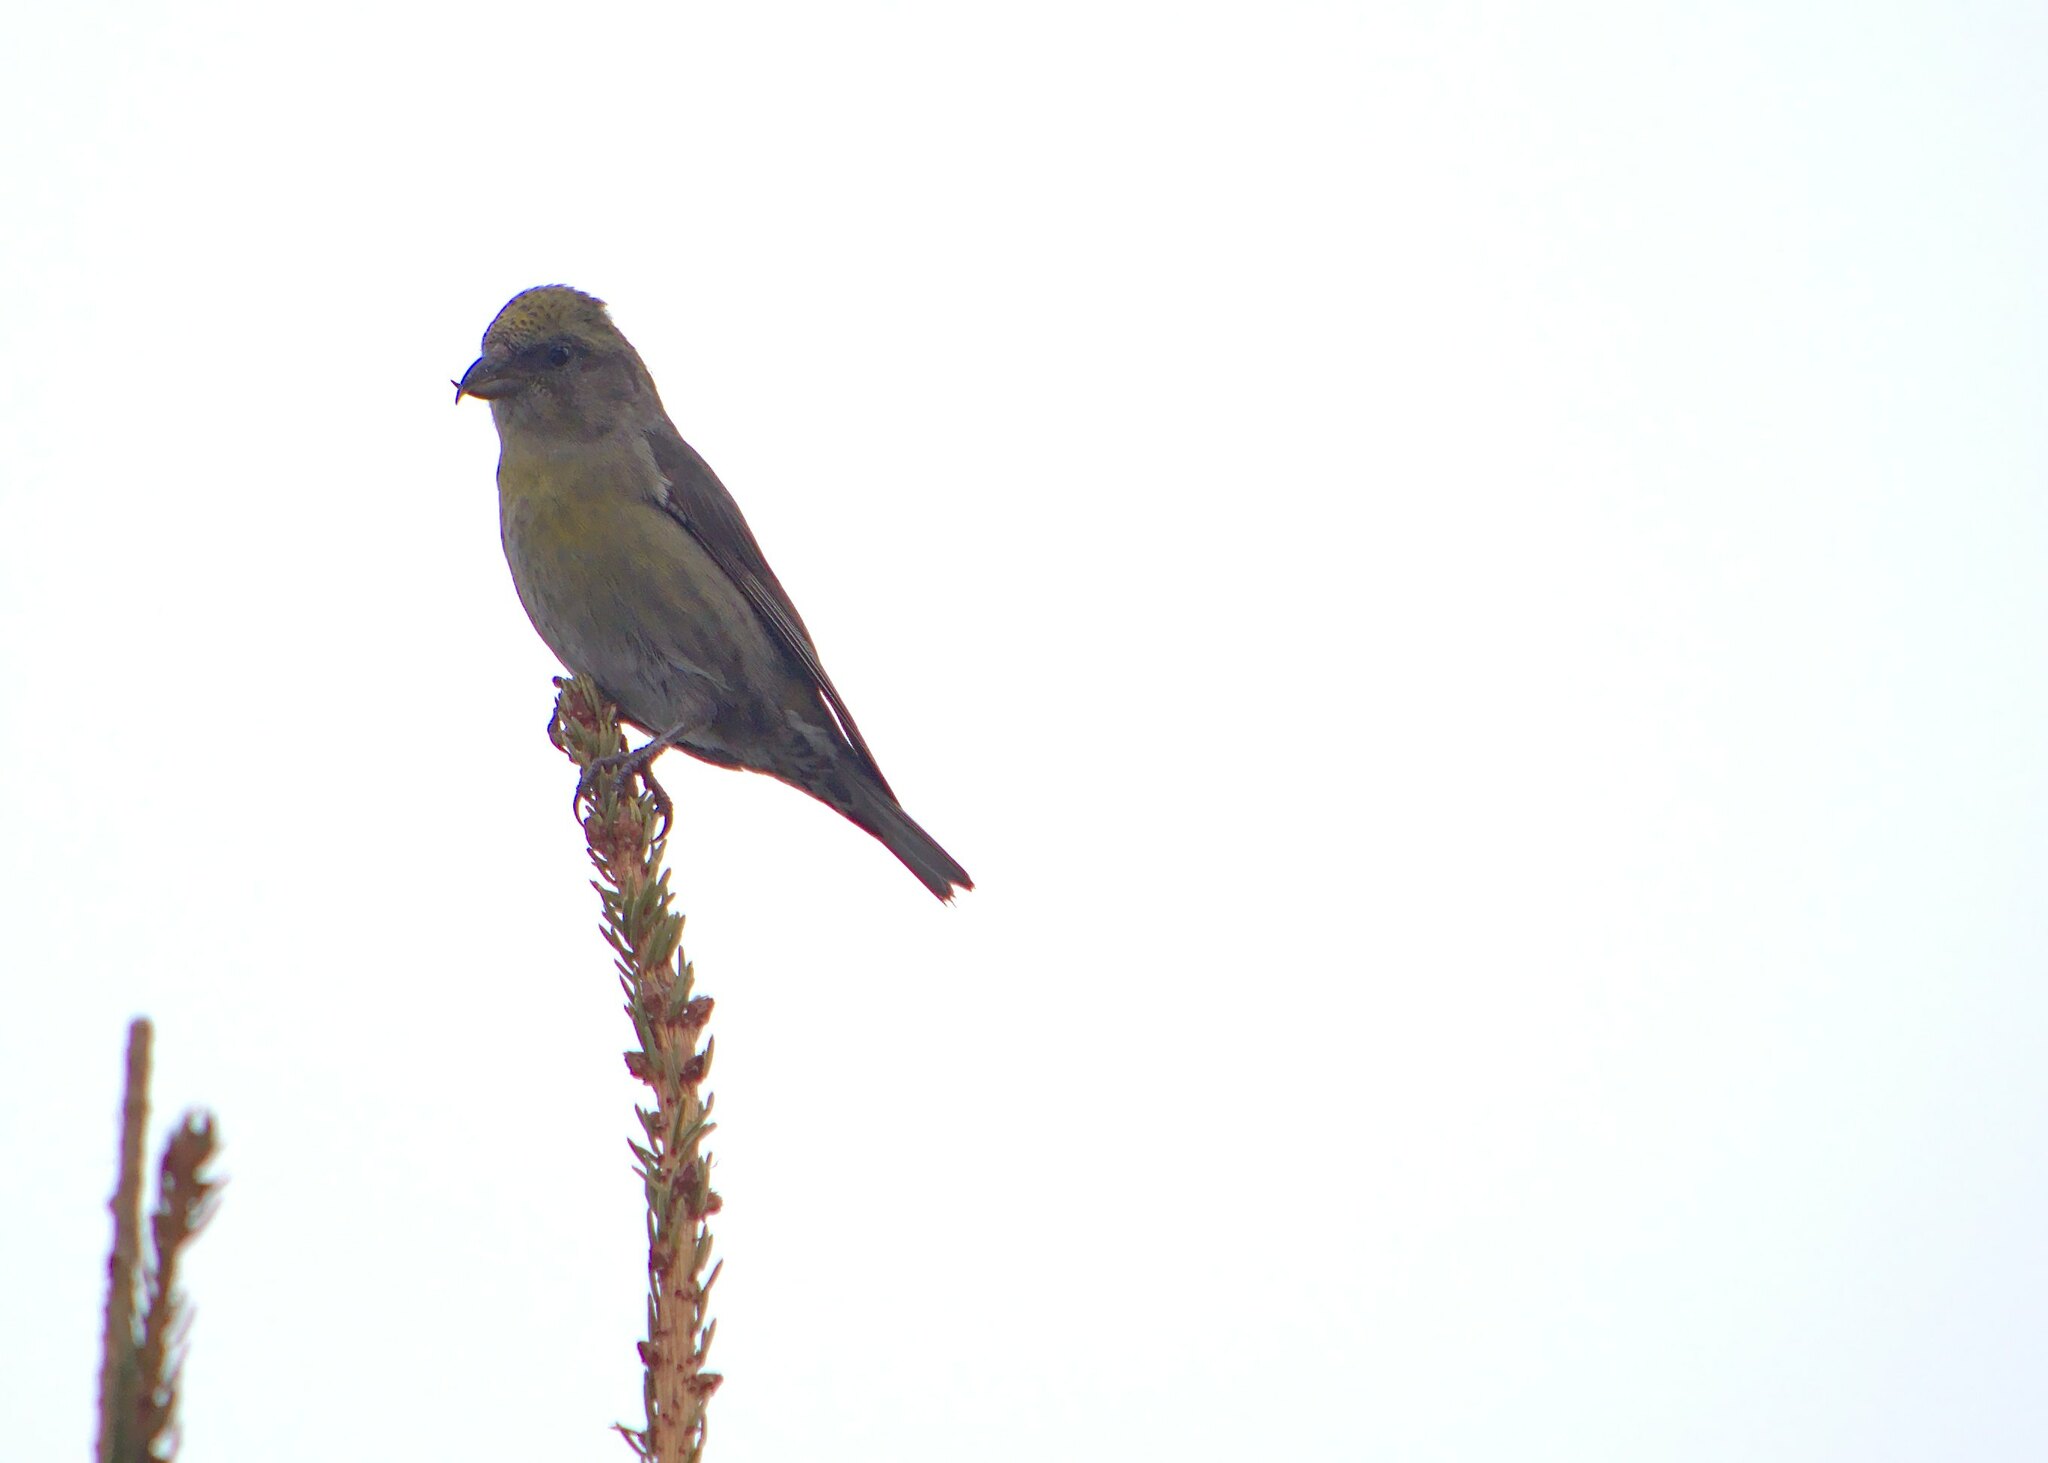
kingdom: Animalia
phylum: Chordata
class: Aves
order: Passeriformes
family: Fringillidae
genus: Loxia
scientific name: Loxia curvirostra
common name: Red crossbill
